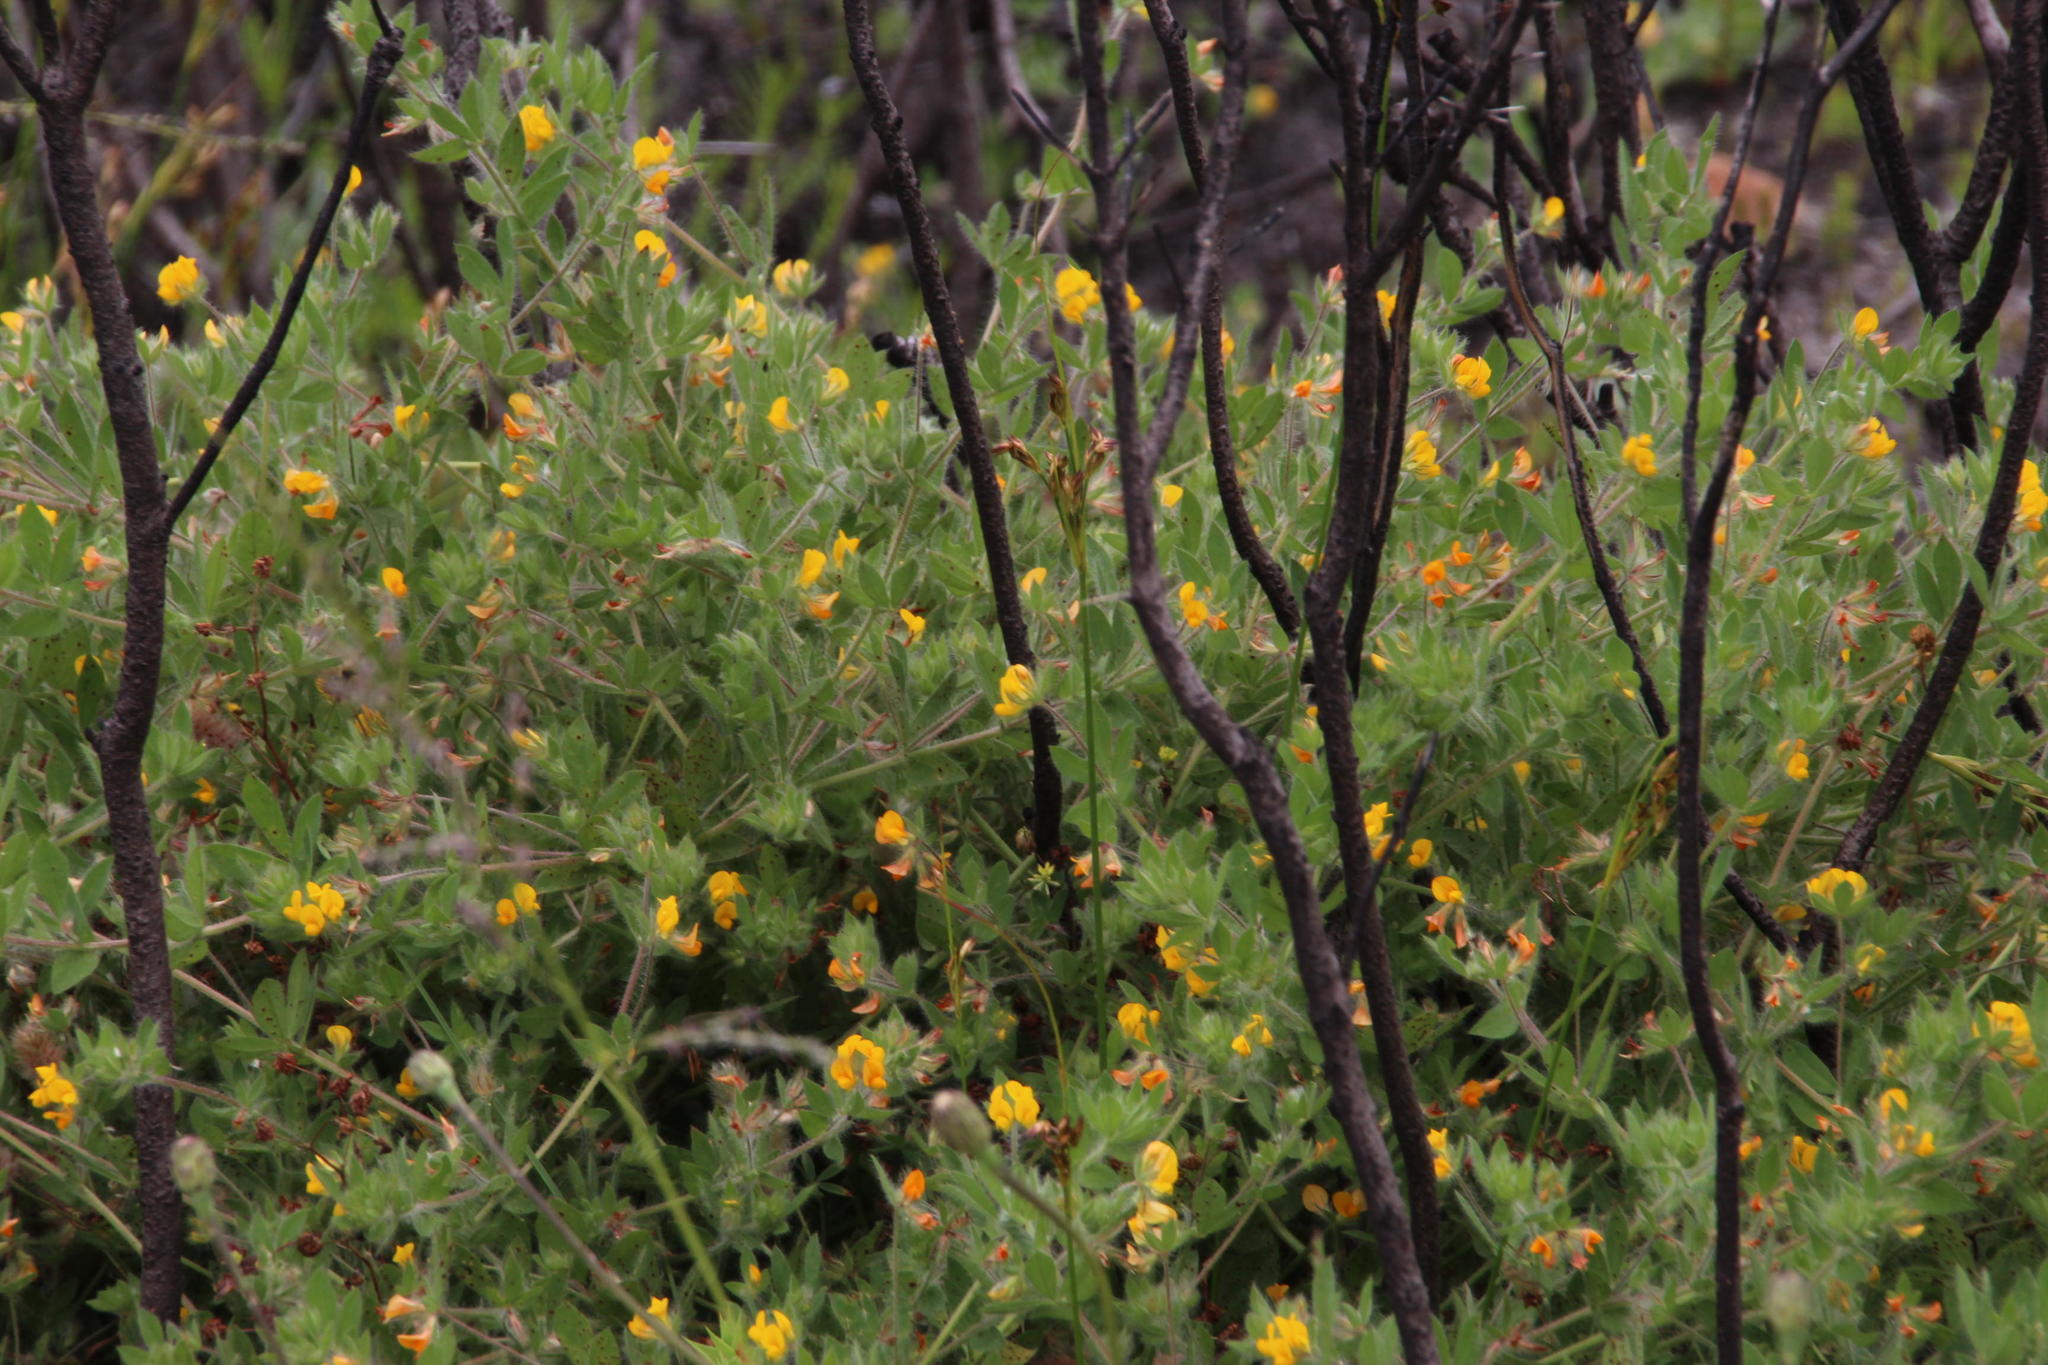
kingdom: Plantae
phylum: Tracheophyta
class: Magnoliopsida
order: Fabales
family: Fabaceae
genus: Lotus
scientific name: Lotus subbiflorus
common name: Hairy bird's-foot trefoil
